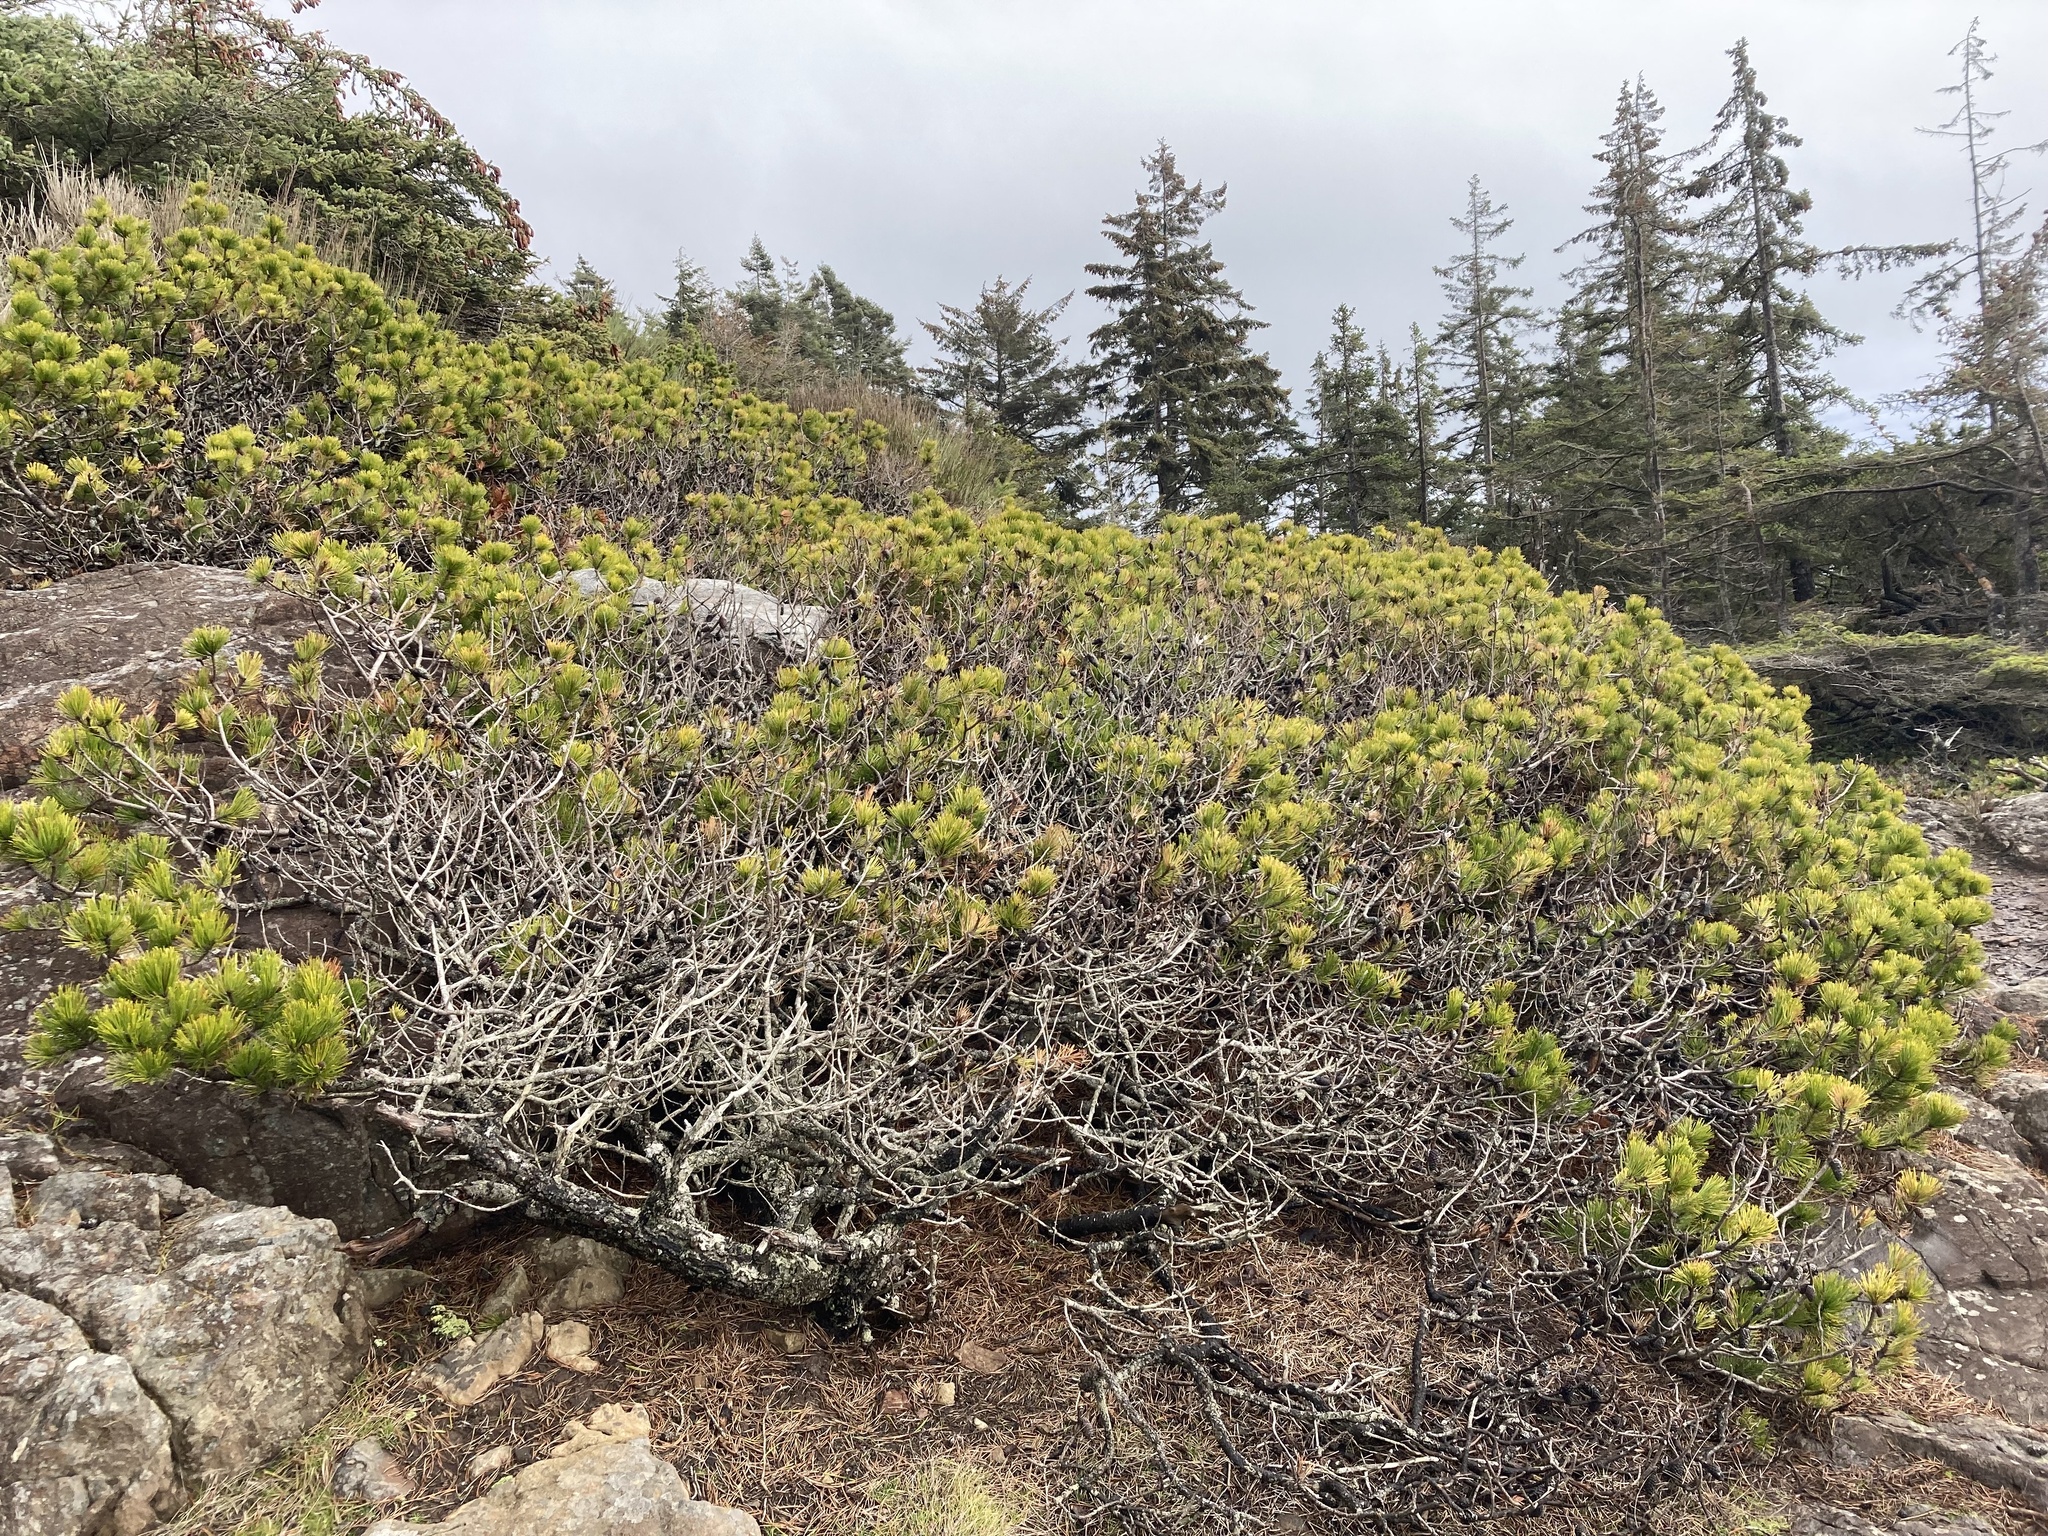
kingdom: Plantae
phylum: Tracheophyta
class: Pinopsida
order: Pinales
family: Pinaceae
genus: Pinus
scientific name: Pinus contorta
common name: Lodgepole pine
